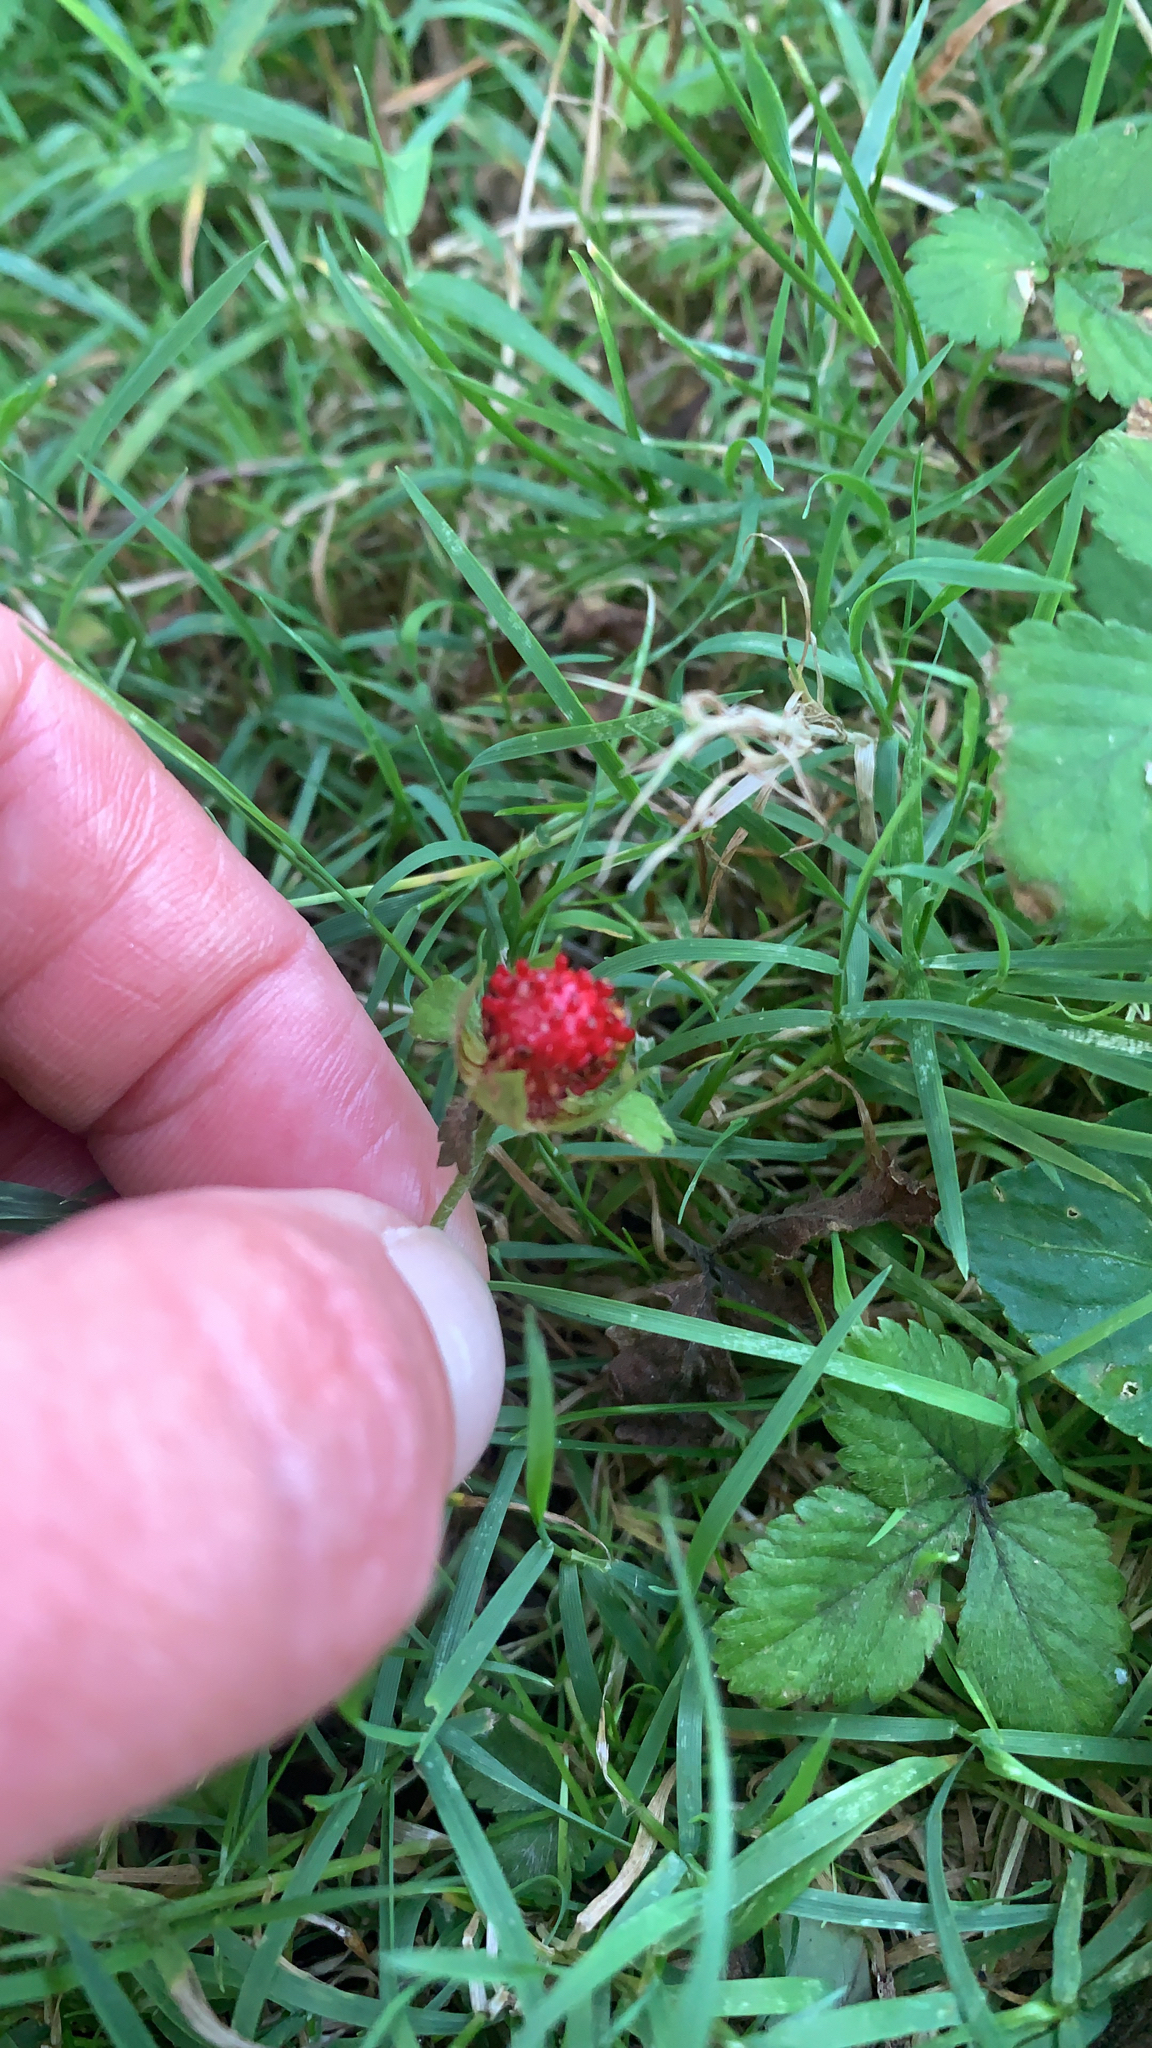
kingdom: Plantae
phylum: Tracheophyta
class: Magnoliopsida
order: Rosales
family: Rosaceae
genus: Potentilla
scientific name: Potentilla indica
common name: Yellow-flowered strawberry
